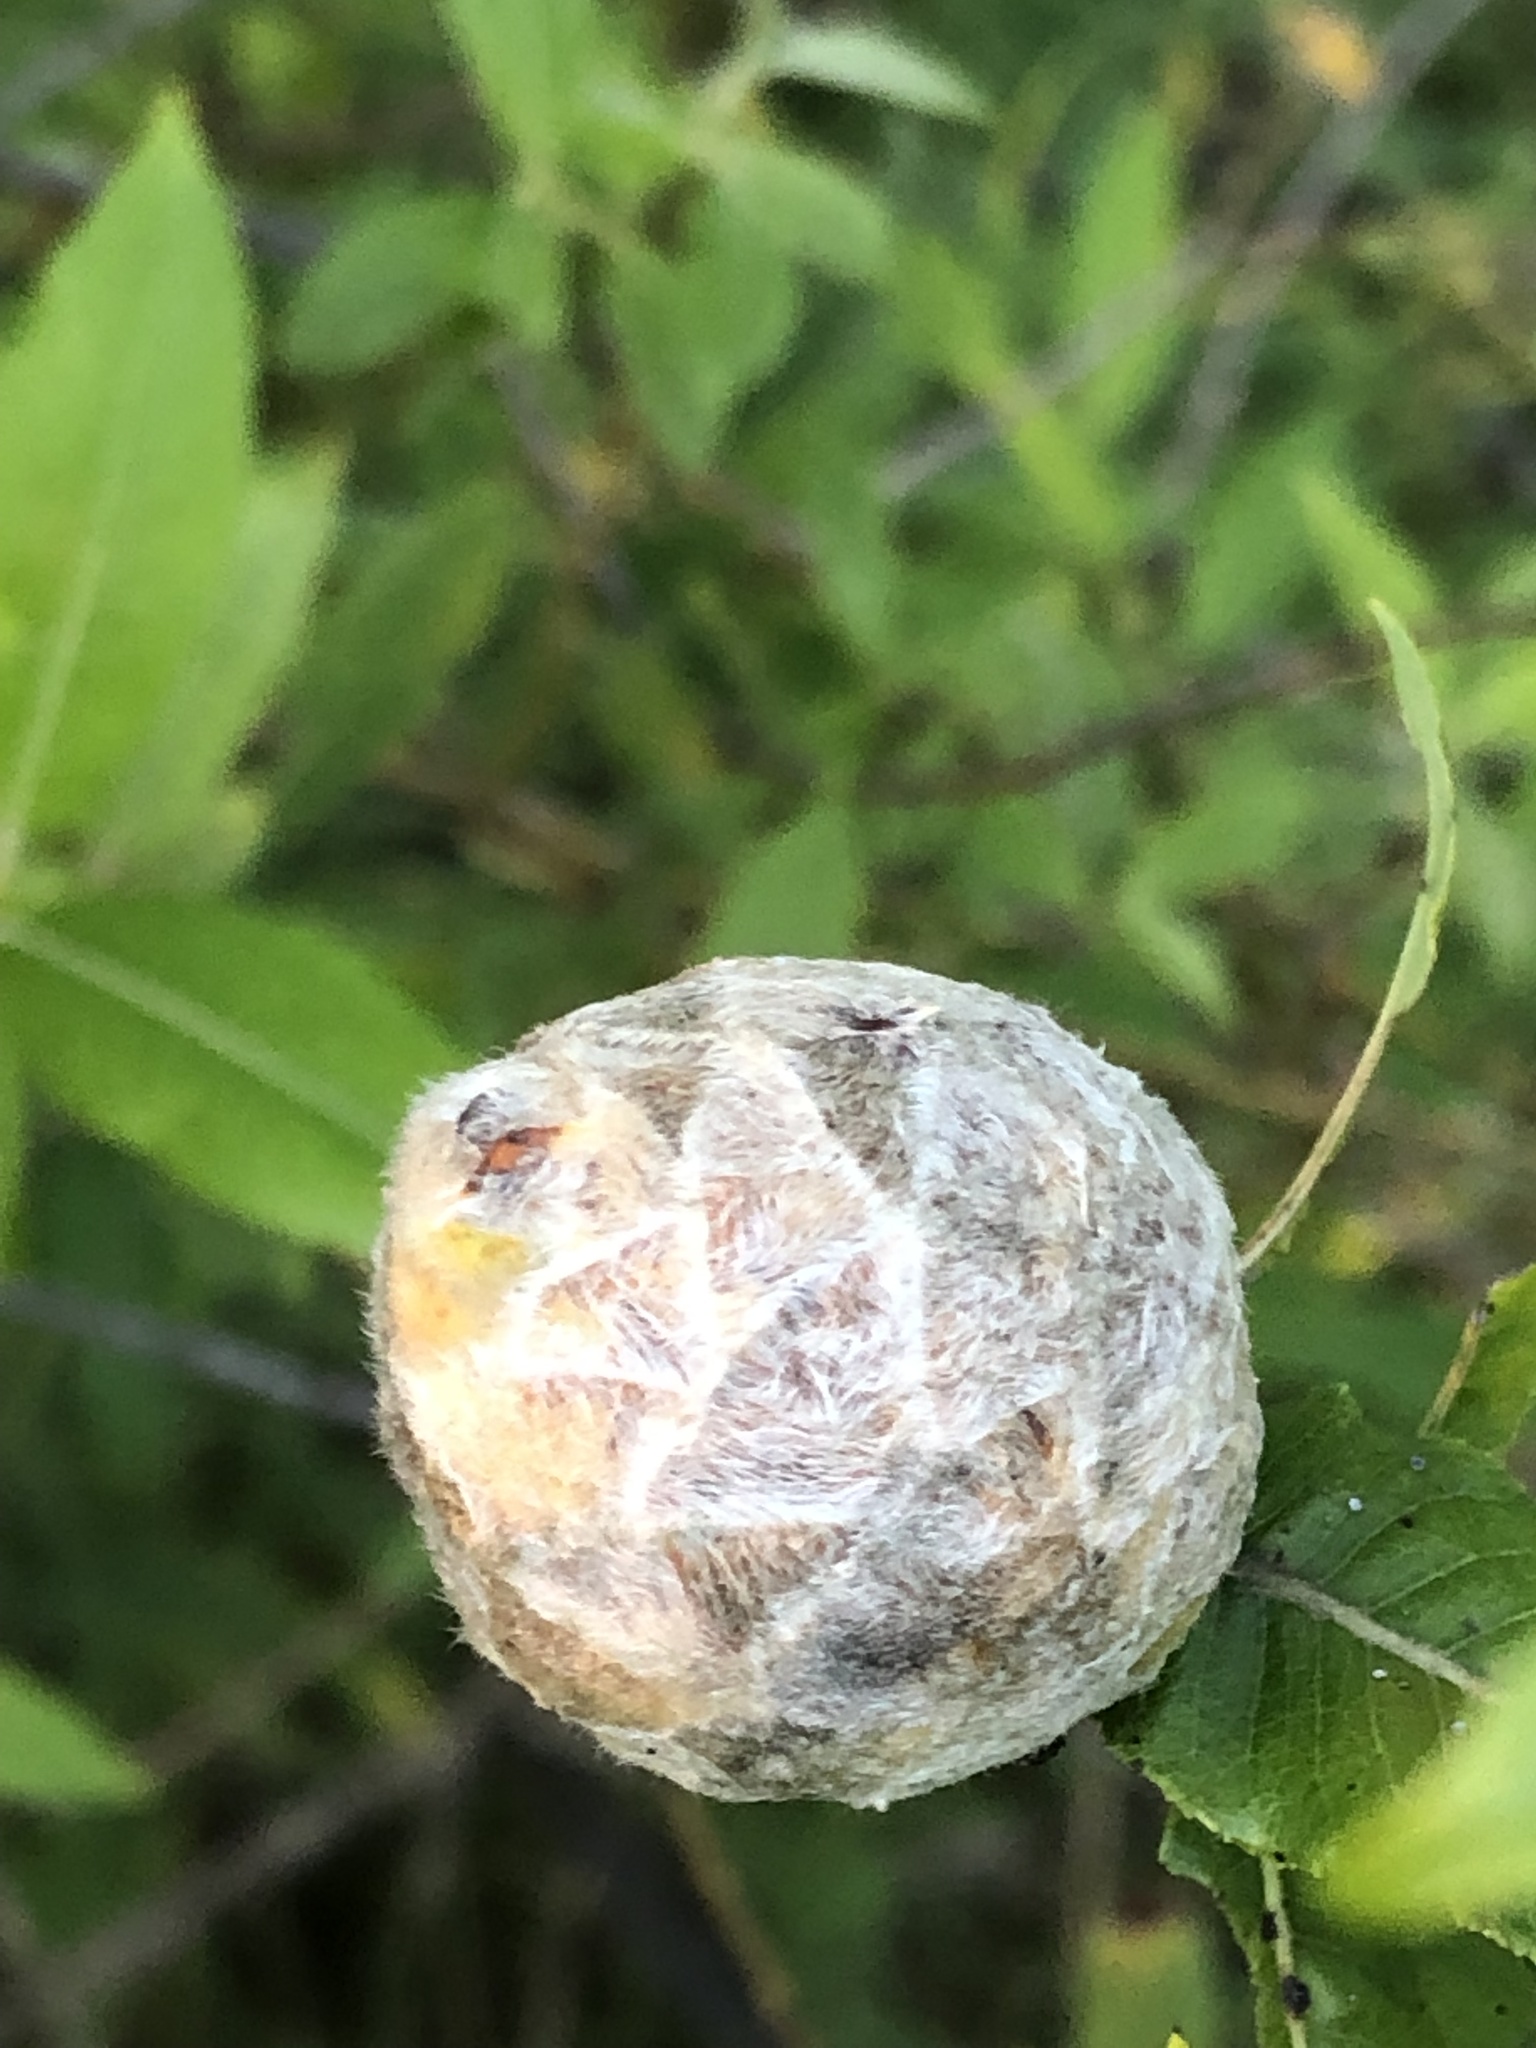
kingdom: Animalia
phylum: Arthropoda
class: Insecta
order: Diptera
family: Cecidomyiidae
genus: Rabdophaga
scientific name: Rabdophaga strobiloides
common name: Willow pinecone gall midge
